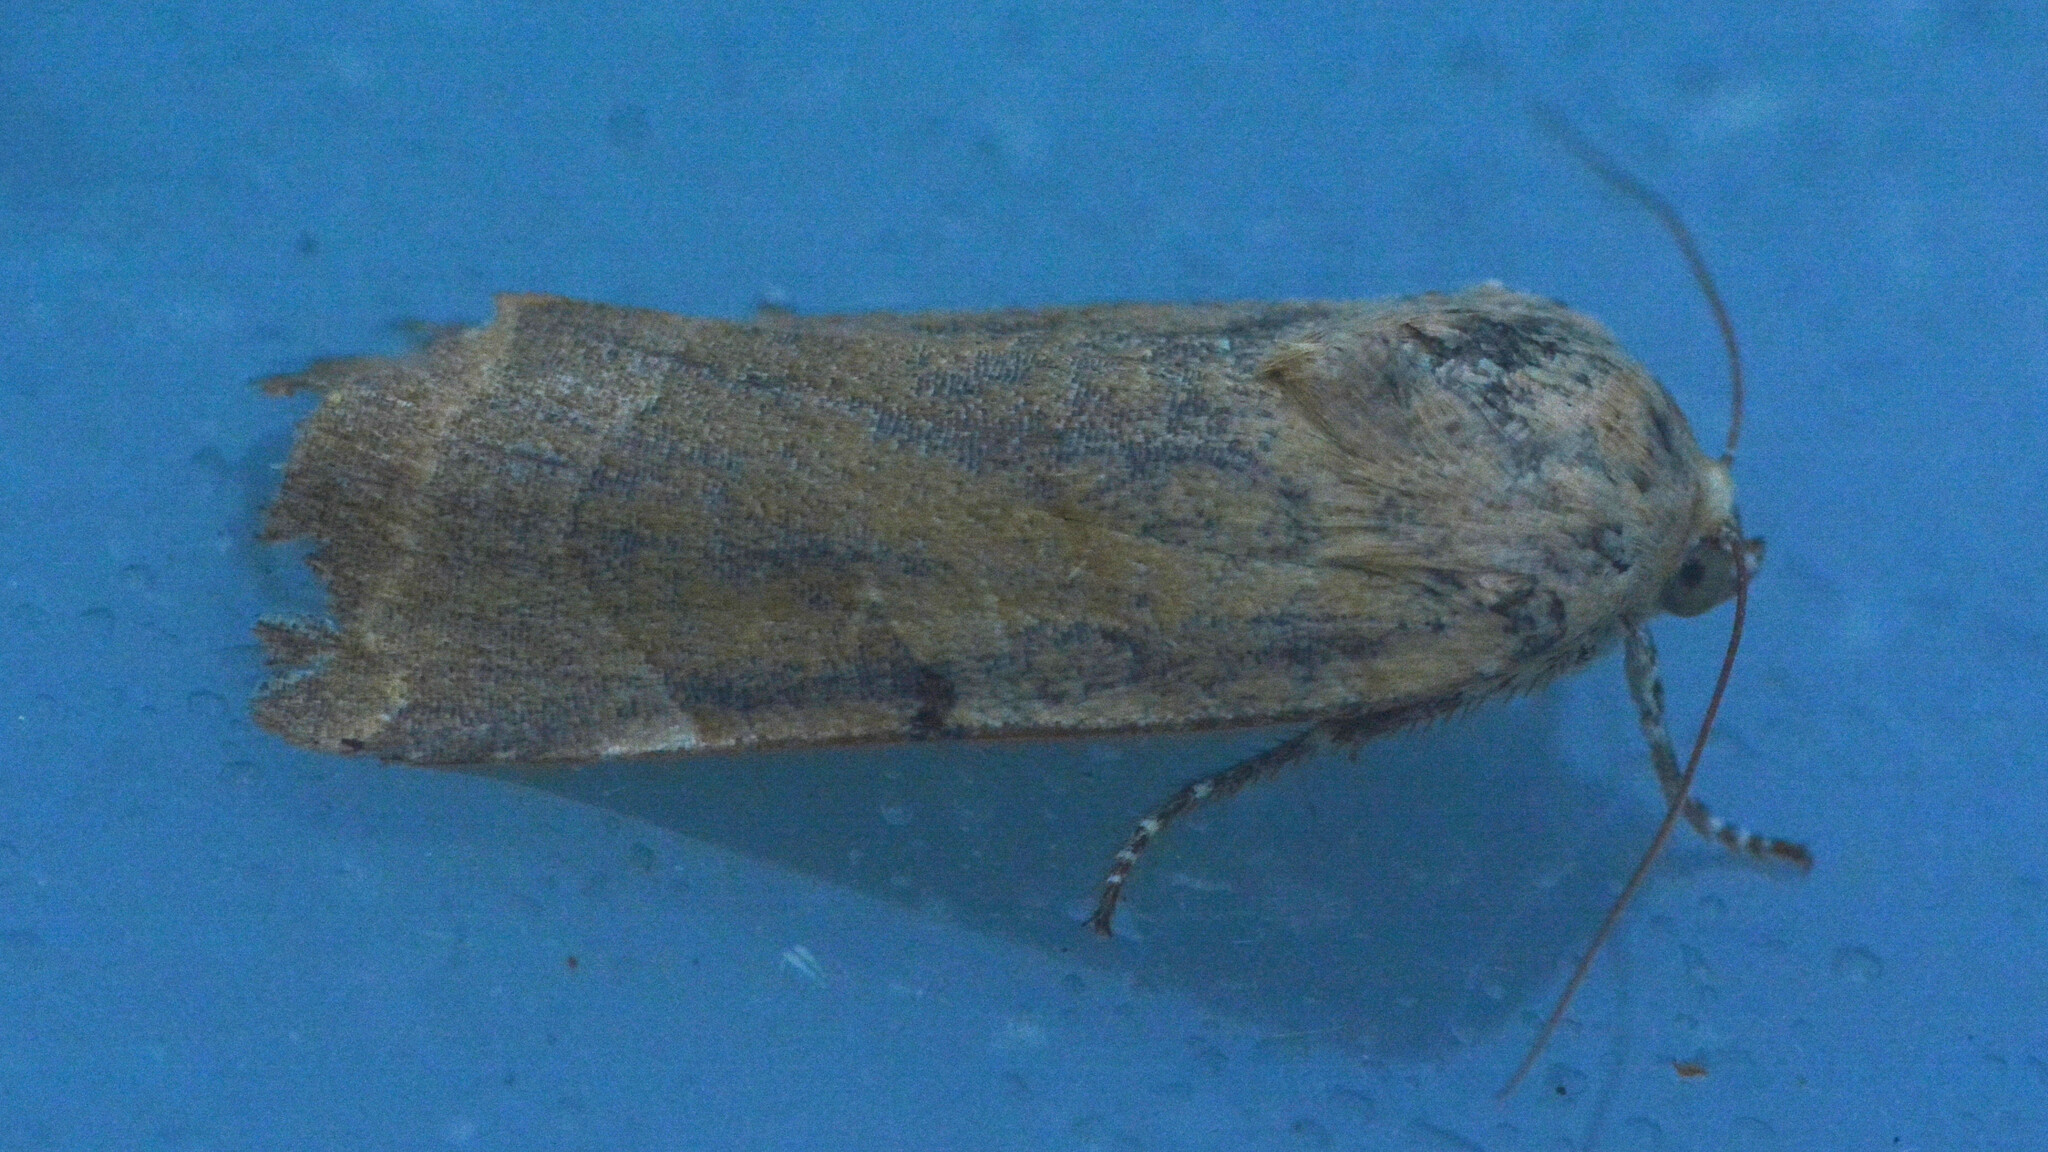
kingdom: Animalia
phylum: Arthropoda
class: Insecta
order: Lepidoptera
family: Noctuidae
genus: Noctua
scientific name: Noctua fimbriata
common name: Broad-bordered yellow underwing
